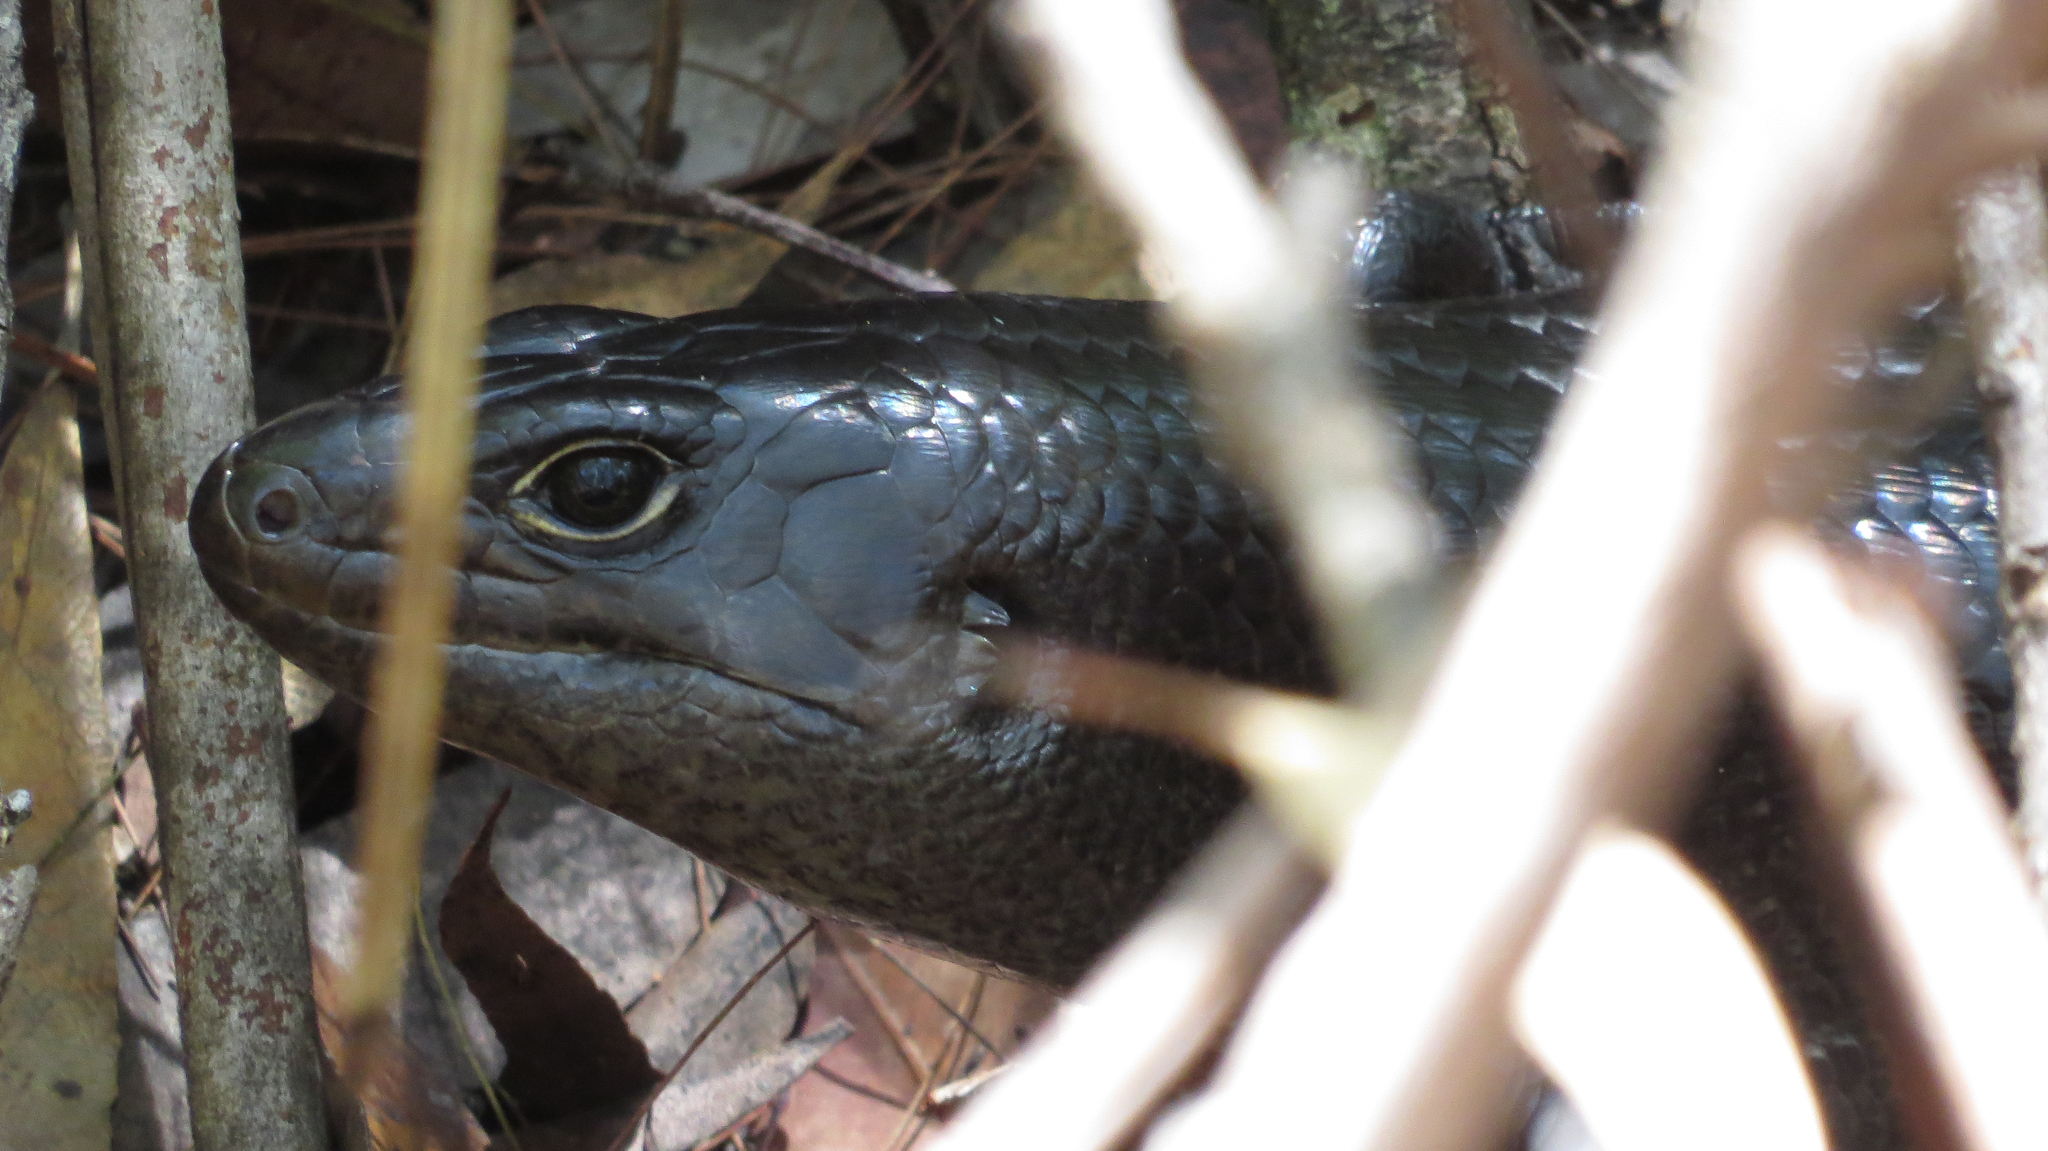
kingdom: Animalia
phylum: Chordata
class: Squamata
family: Scincidae
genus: Bellatorias
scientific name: Bellatorias major
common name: Land mullet
